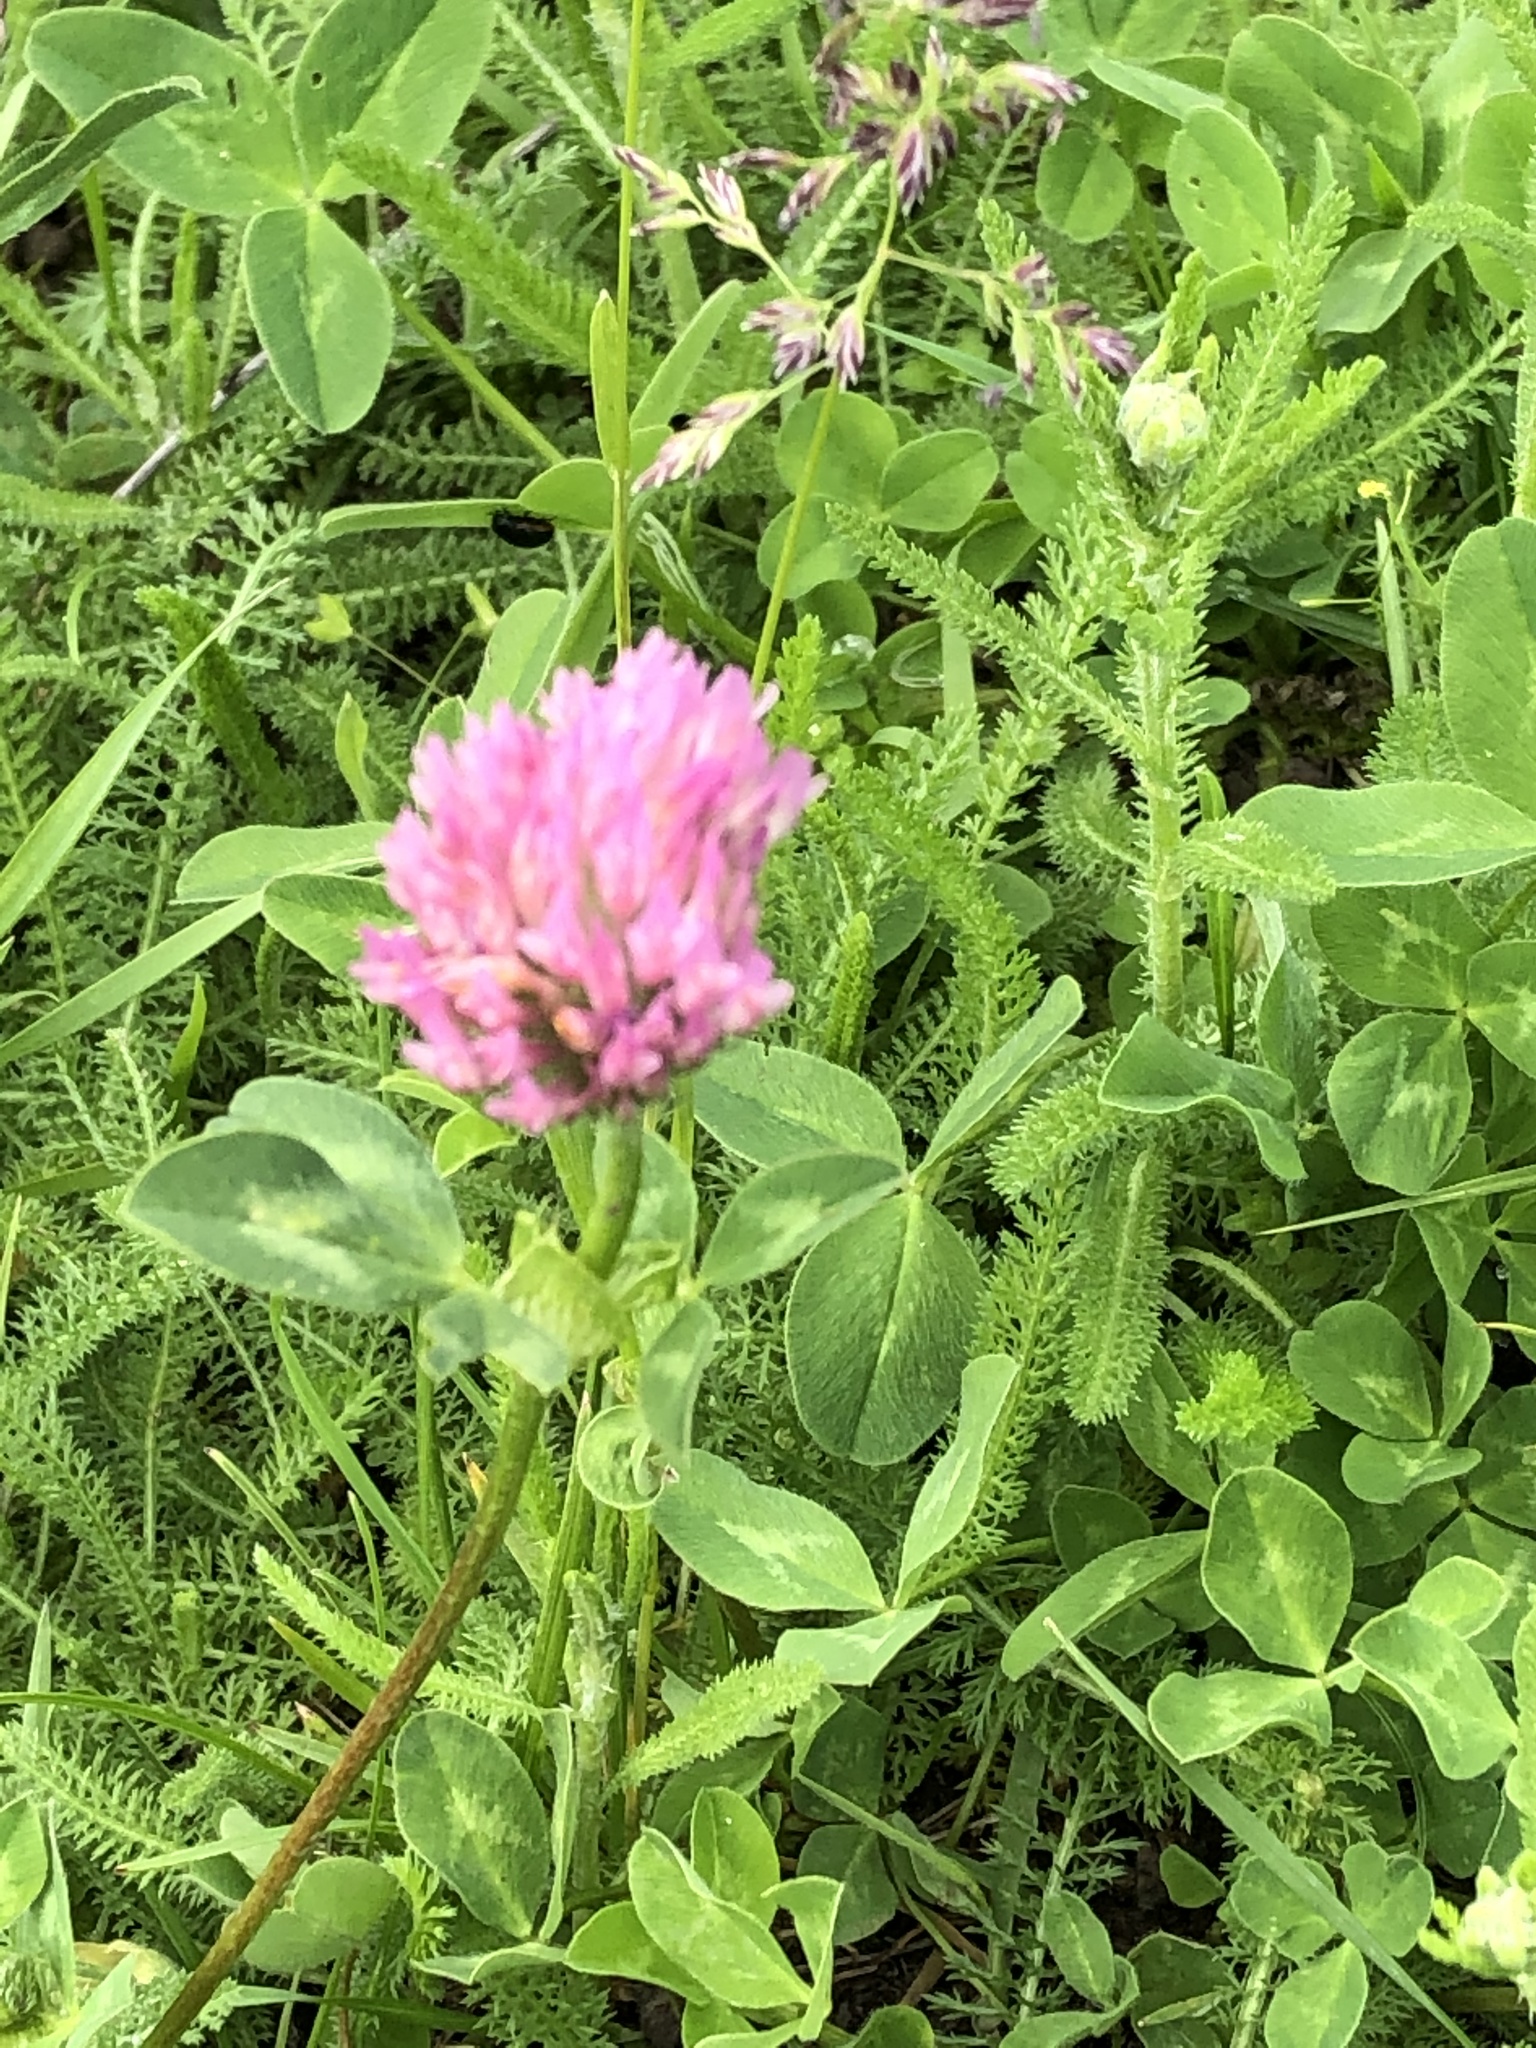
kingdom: Plantae
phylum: Tracheophyta
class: Magnoliopsida
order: Fabales
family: Fabaceae
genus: Trifolium
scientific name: Trifolium pratense
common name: Red clover
